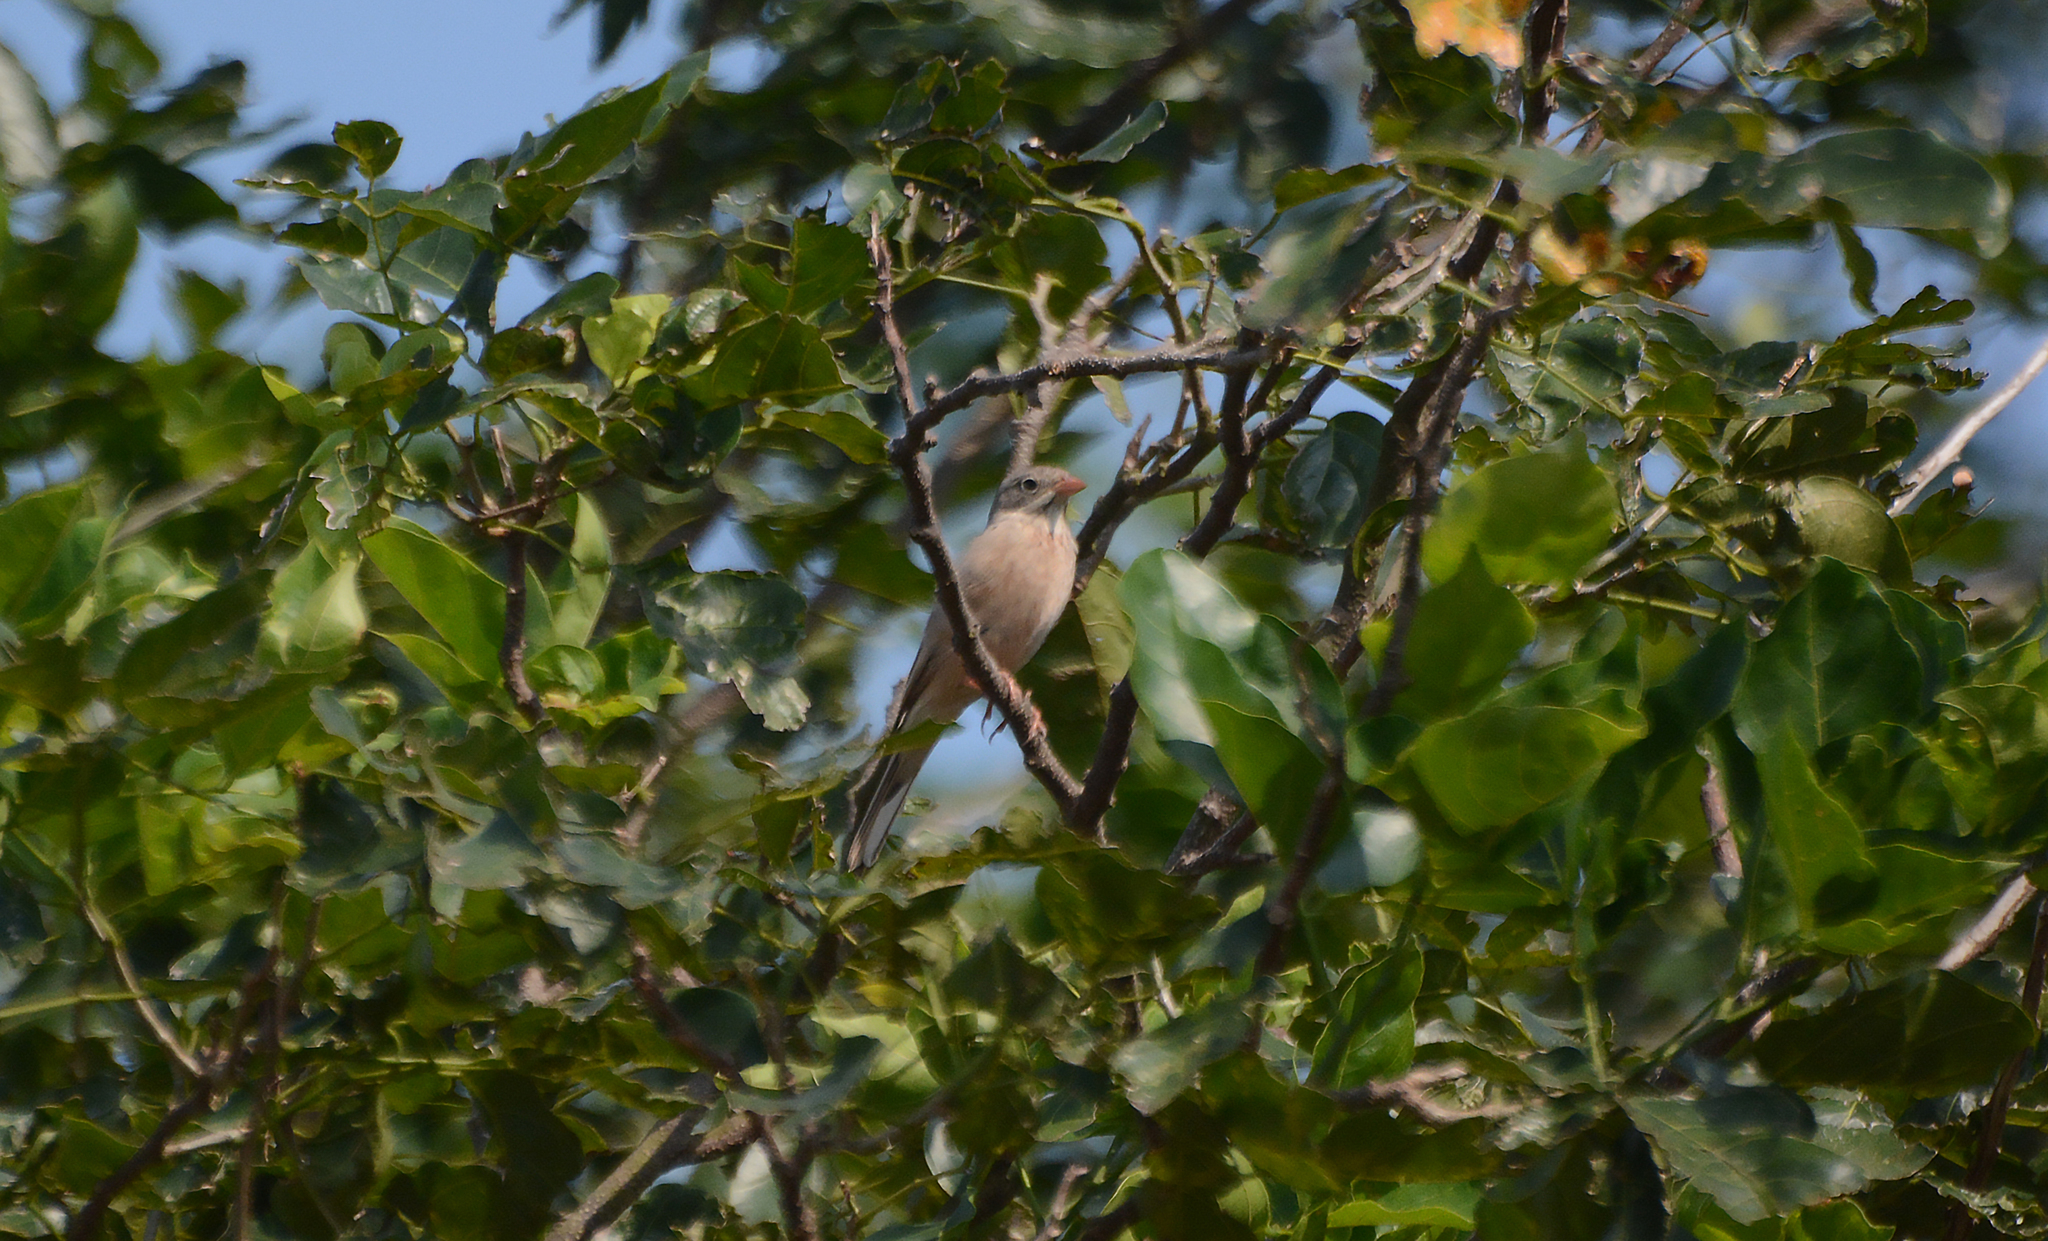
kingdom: Animalia
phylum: Chordata
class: Aves
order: Passeriformes
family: Emberizidae
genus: Emberiza
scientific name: Emberiza buchanani
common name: Grey-necked bunting
